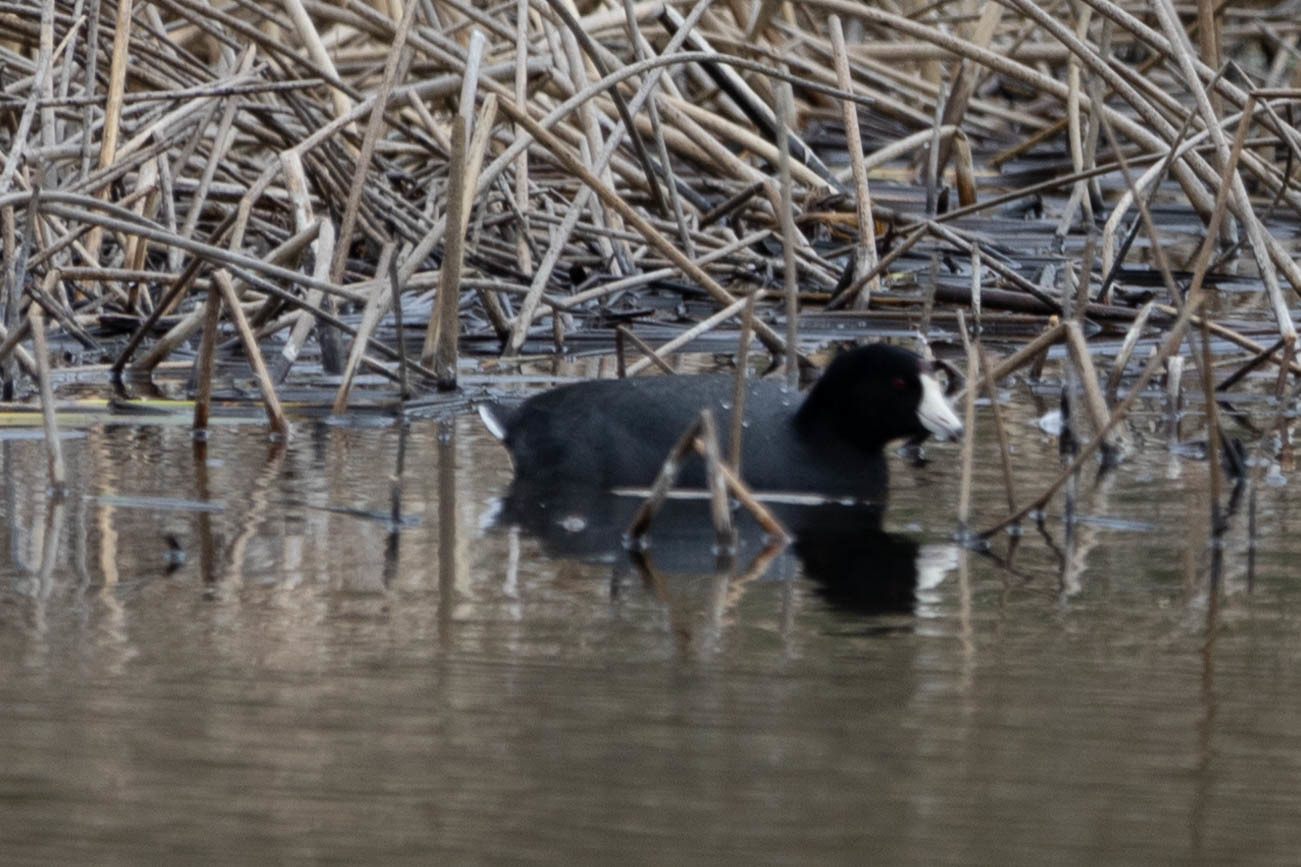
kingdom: Animalia
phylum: Chordata
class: Aves
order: Gruiformes
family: Rallidae
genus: Fulica
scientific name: Fulica americana
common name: American coot
